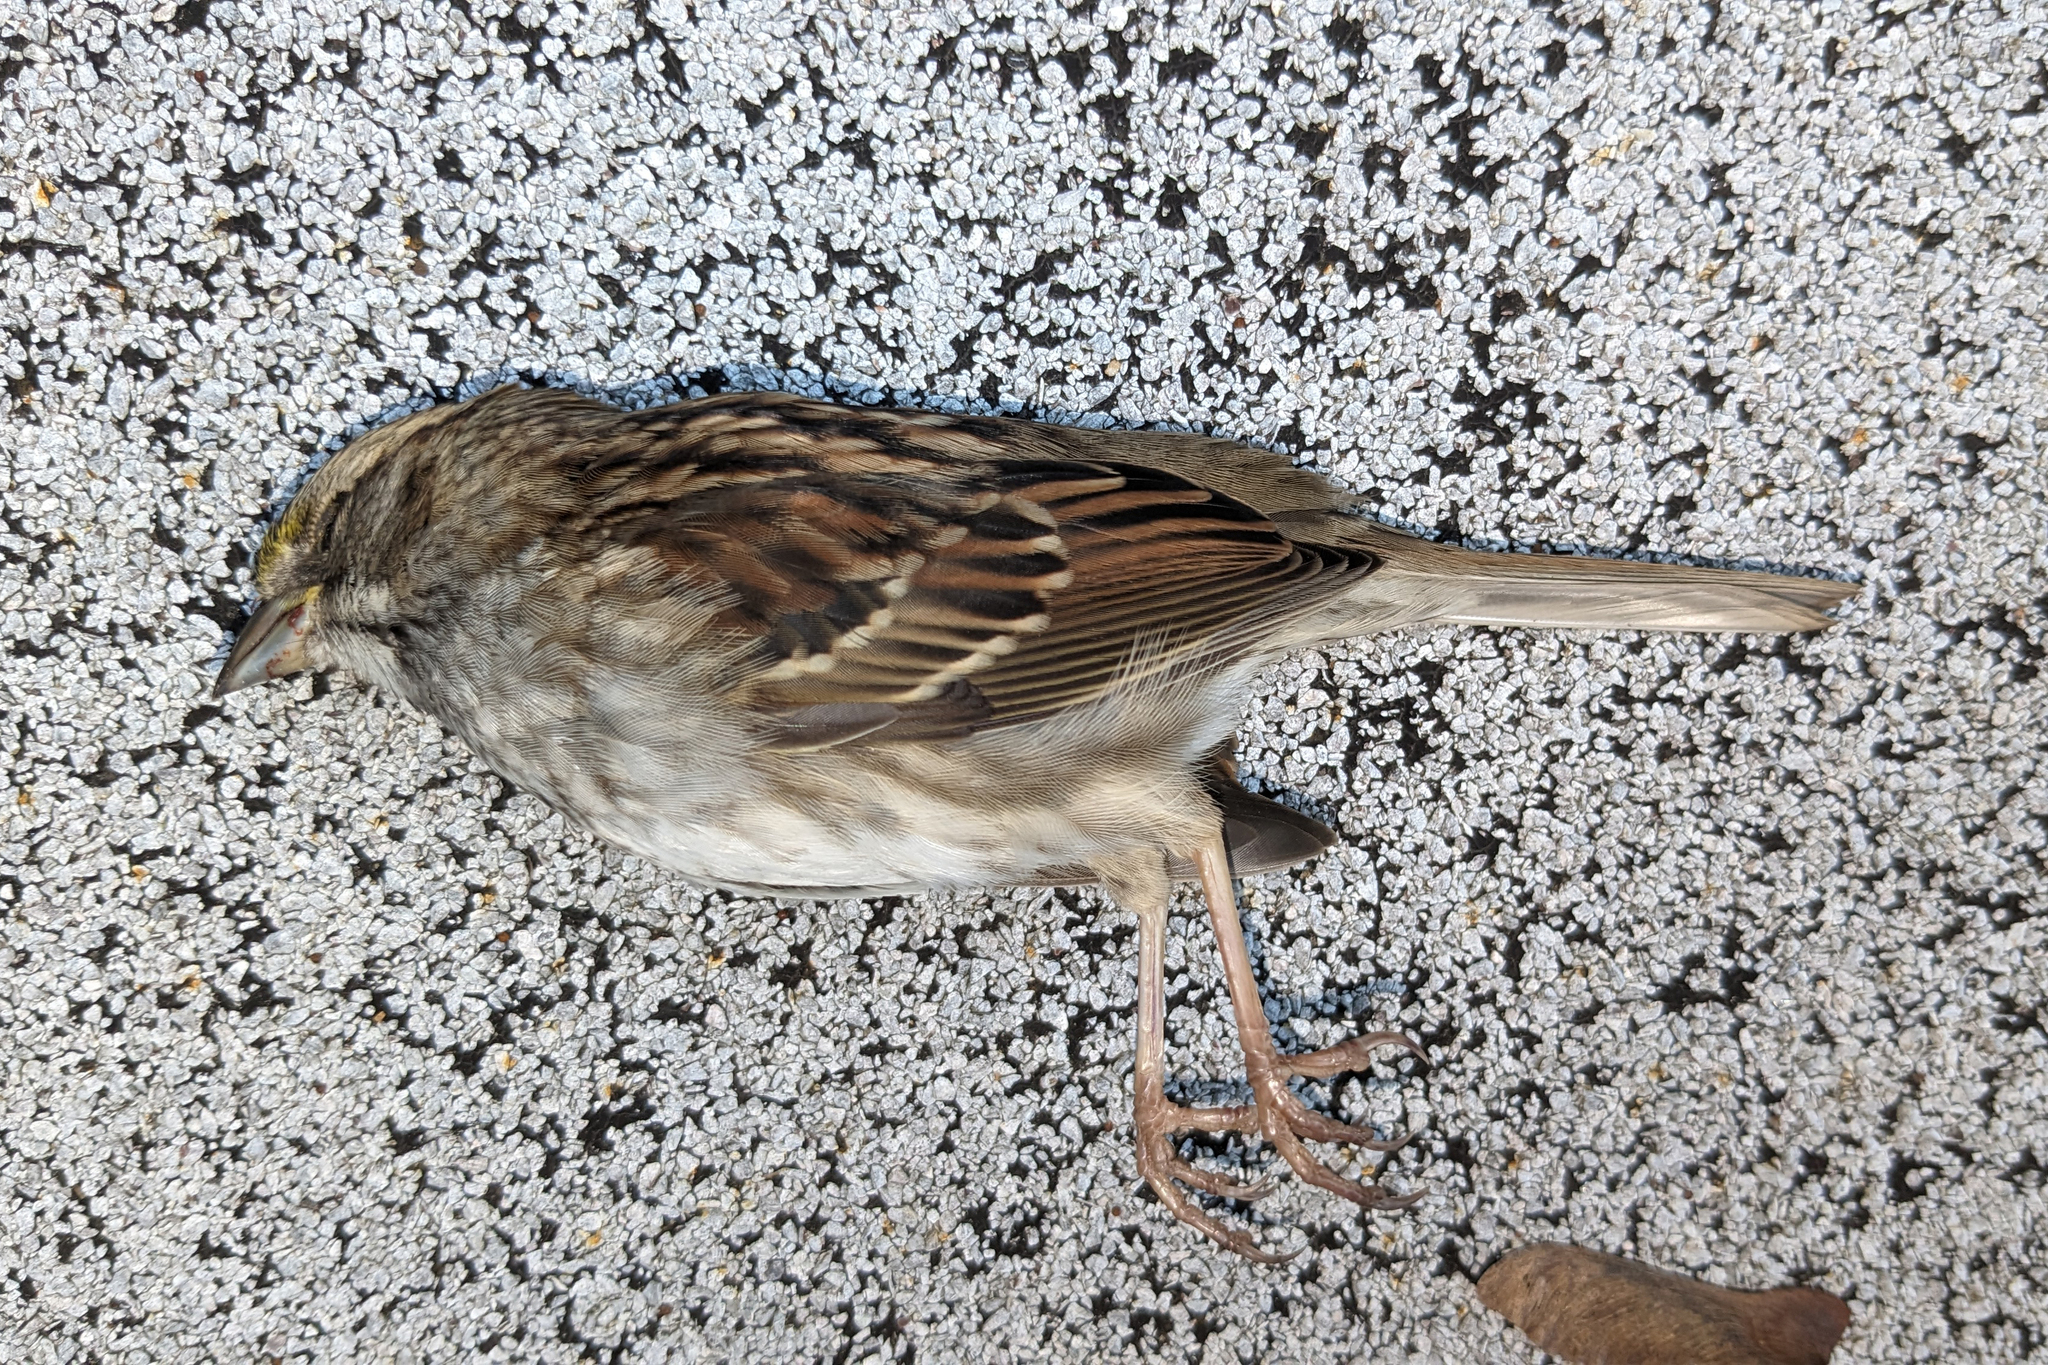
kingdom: Animalia
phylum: Chordata
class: Aves
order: Passeriformes
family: Passerellidae
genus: Zonotrichia
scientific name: Zonotrichia albicollis
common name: White-throated sparrow
